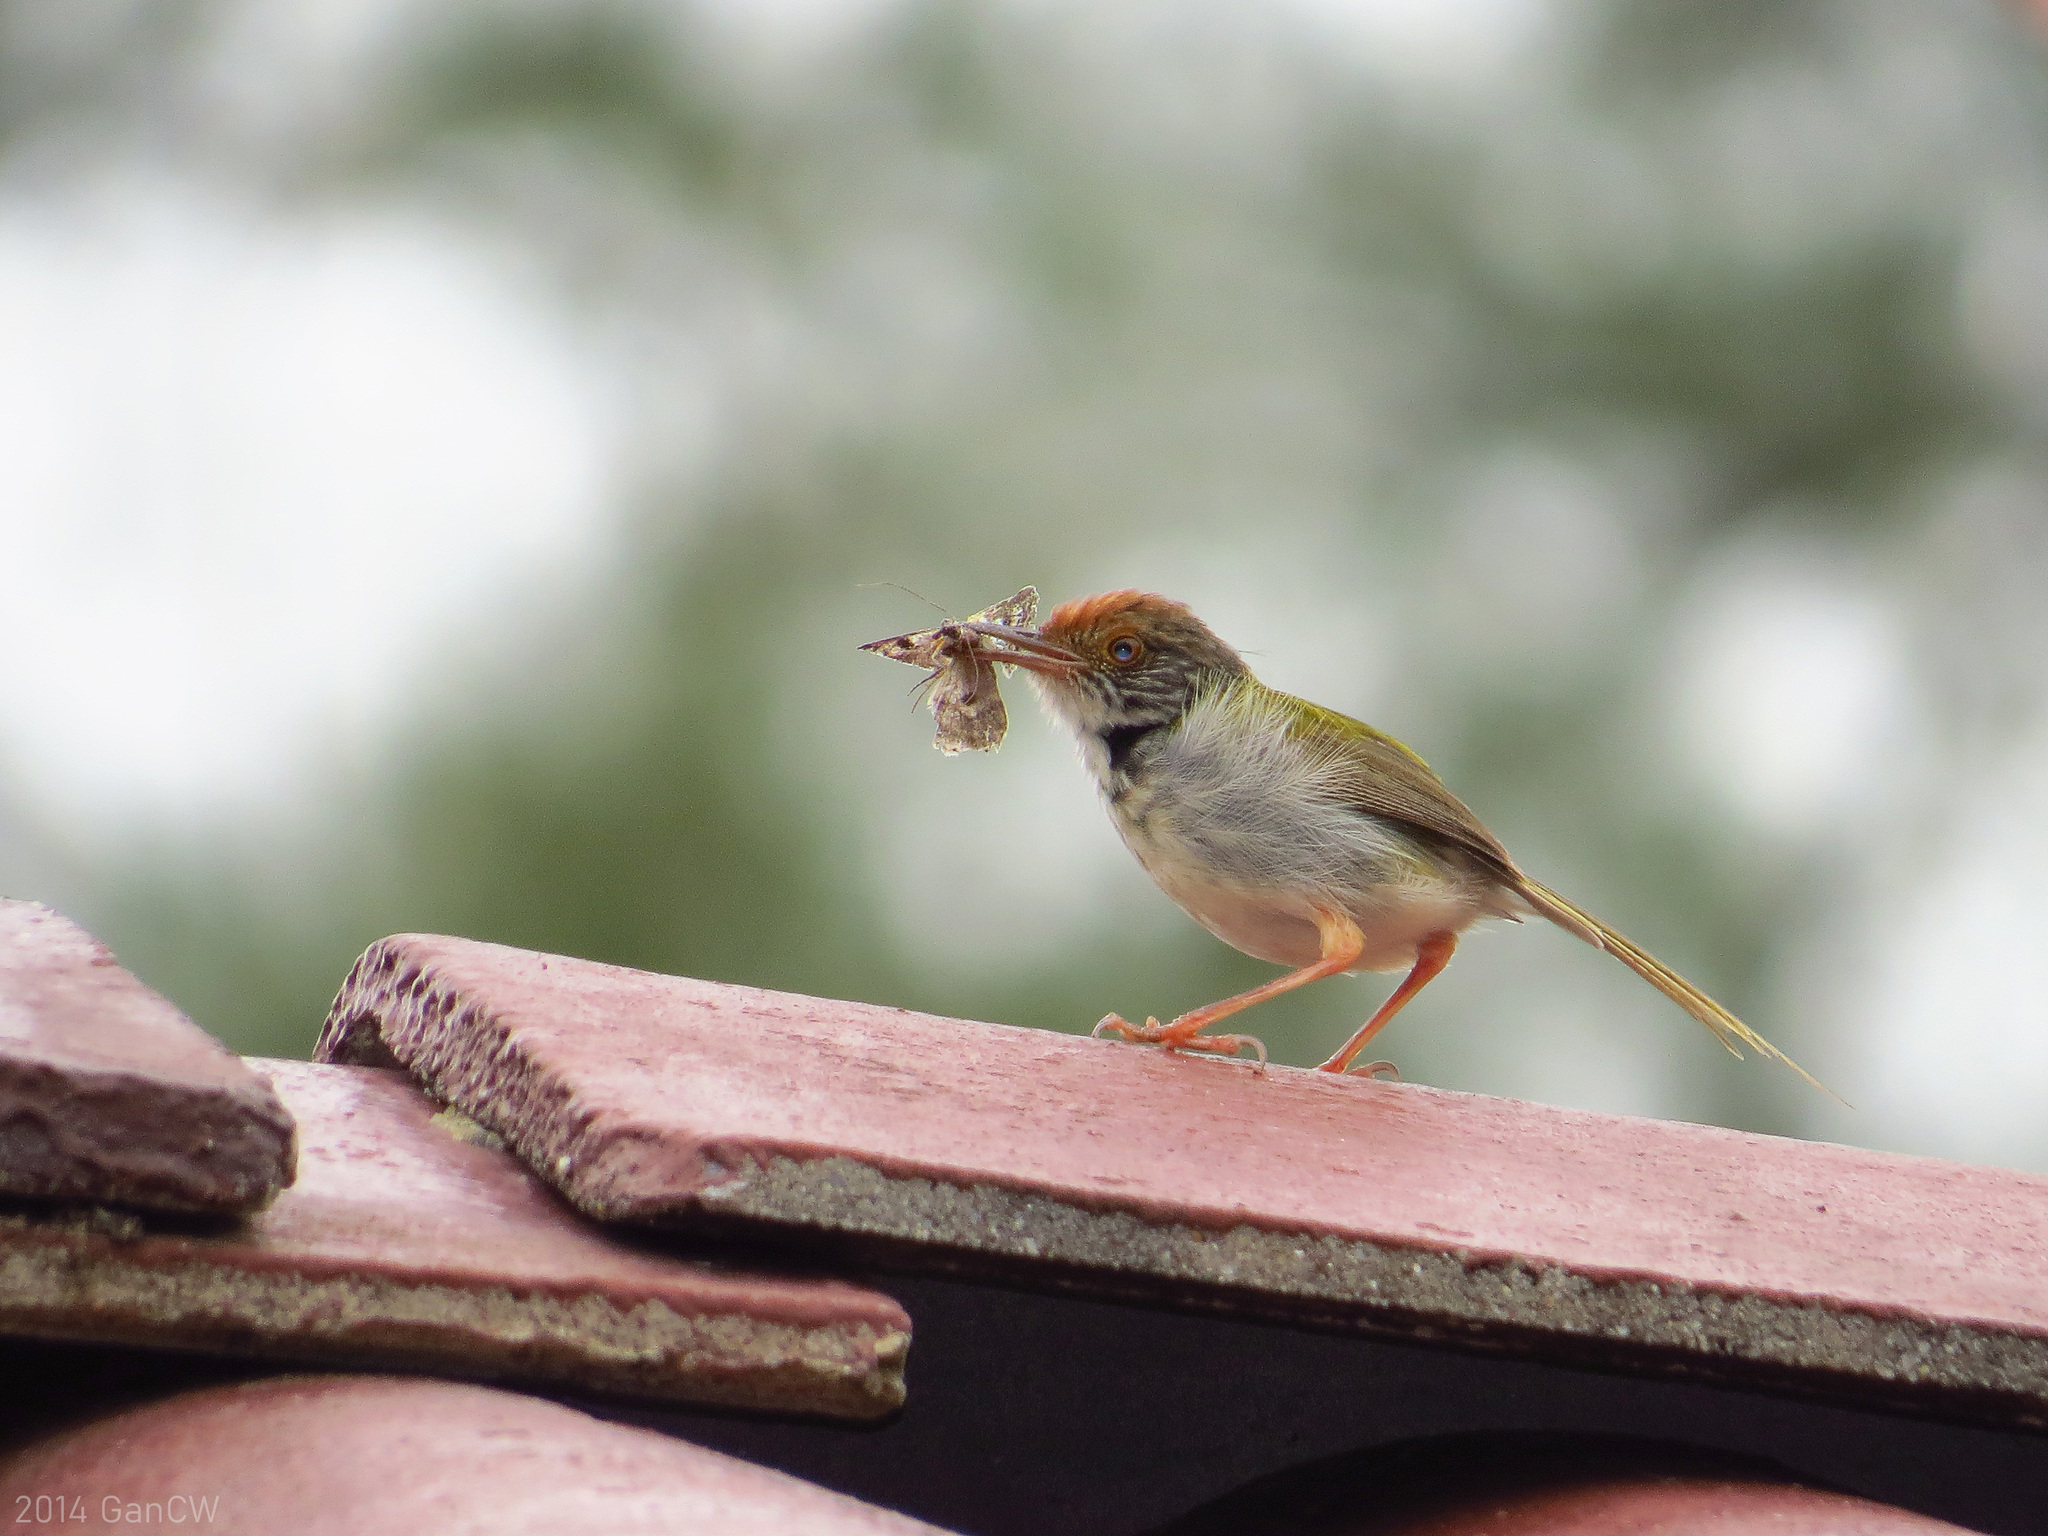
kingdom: Animalia
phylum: Chordata
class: Aves
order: Passeriformes
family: Cisticolidae
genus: Orthotomus
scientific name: Orthotomus sutorius
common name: Common tailorbird
